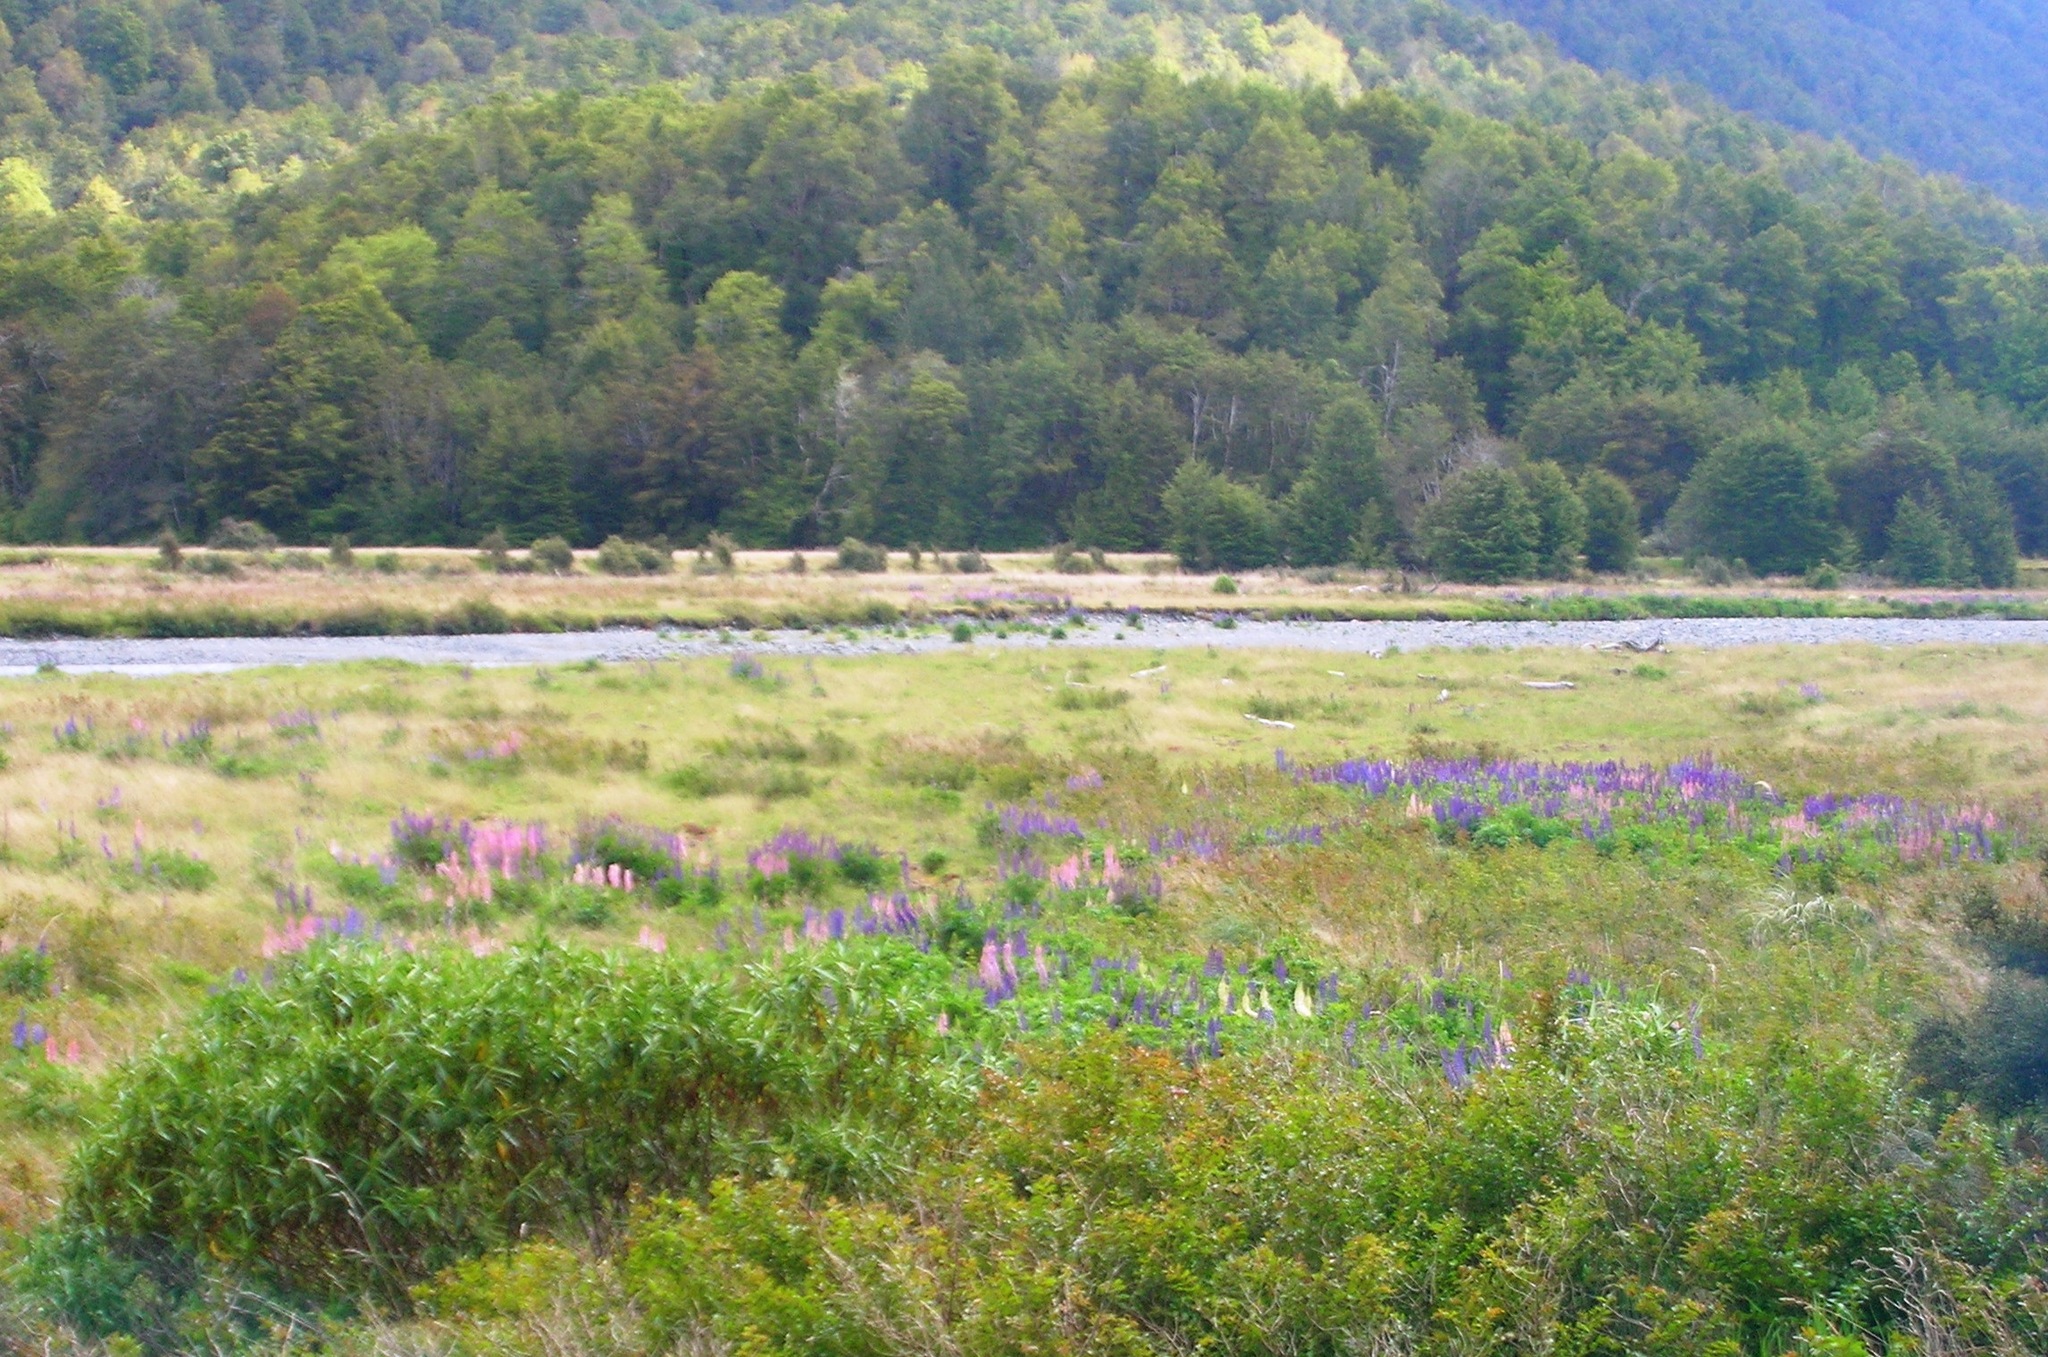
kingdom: Plantae
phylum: Tracheophyta
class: Magnoliopsida
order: Fabales
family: Fabaceae
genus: Lupinus
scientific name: Lupinus polyphyllus
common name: Garden lupin
